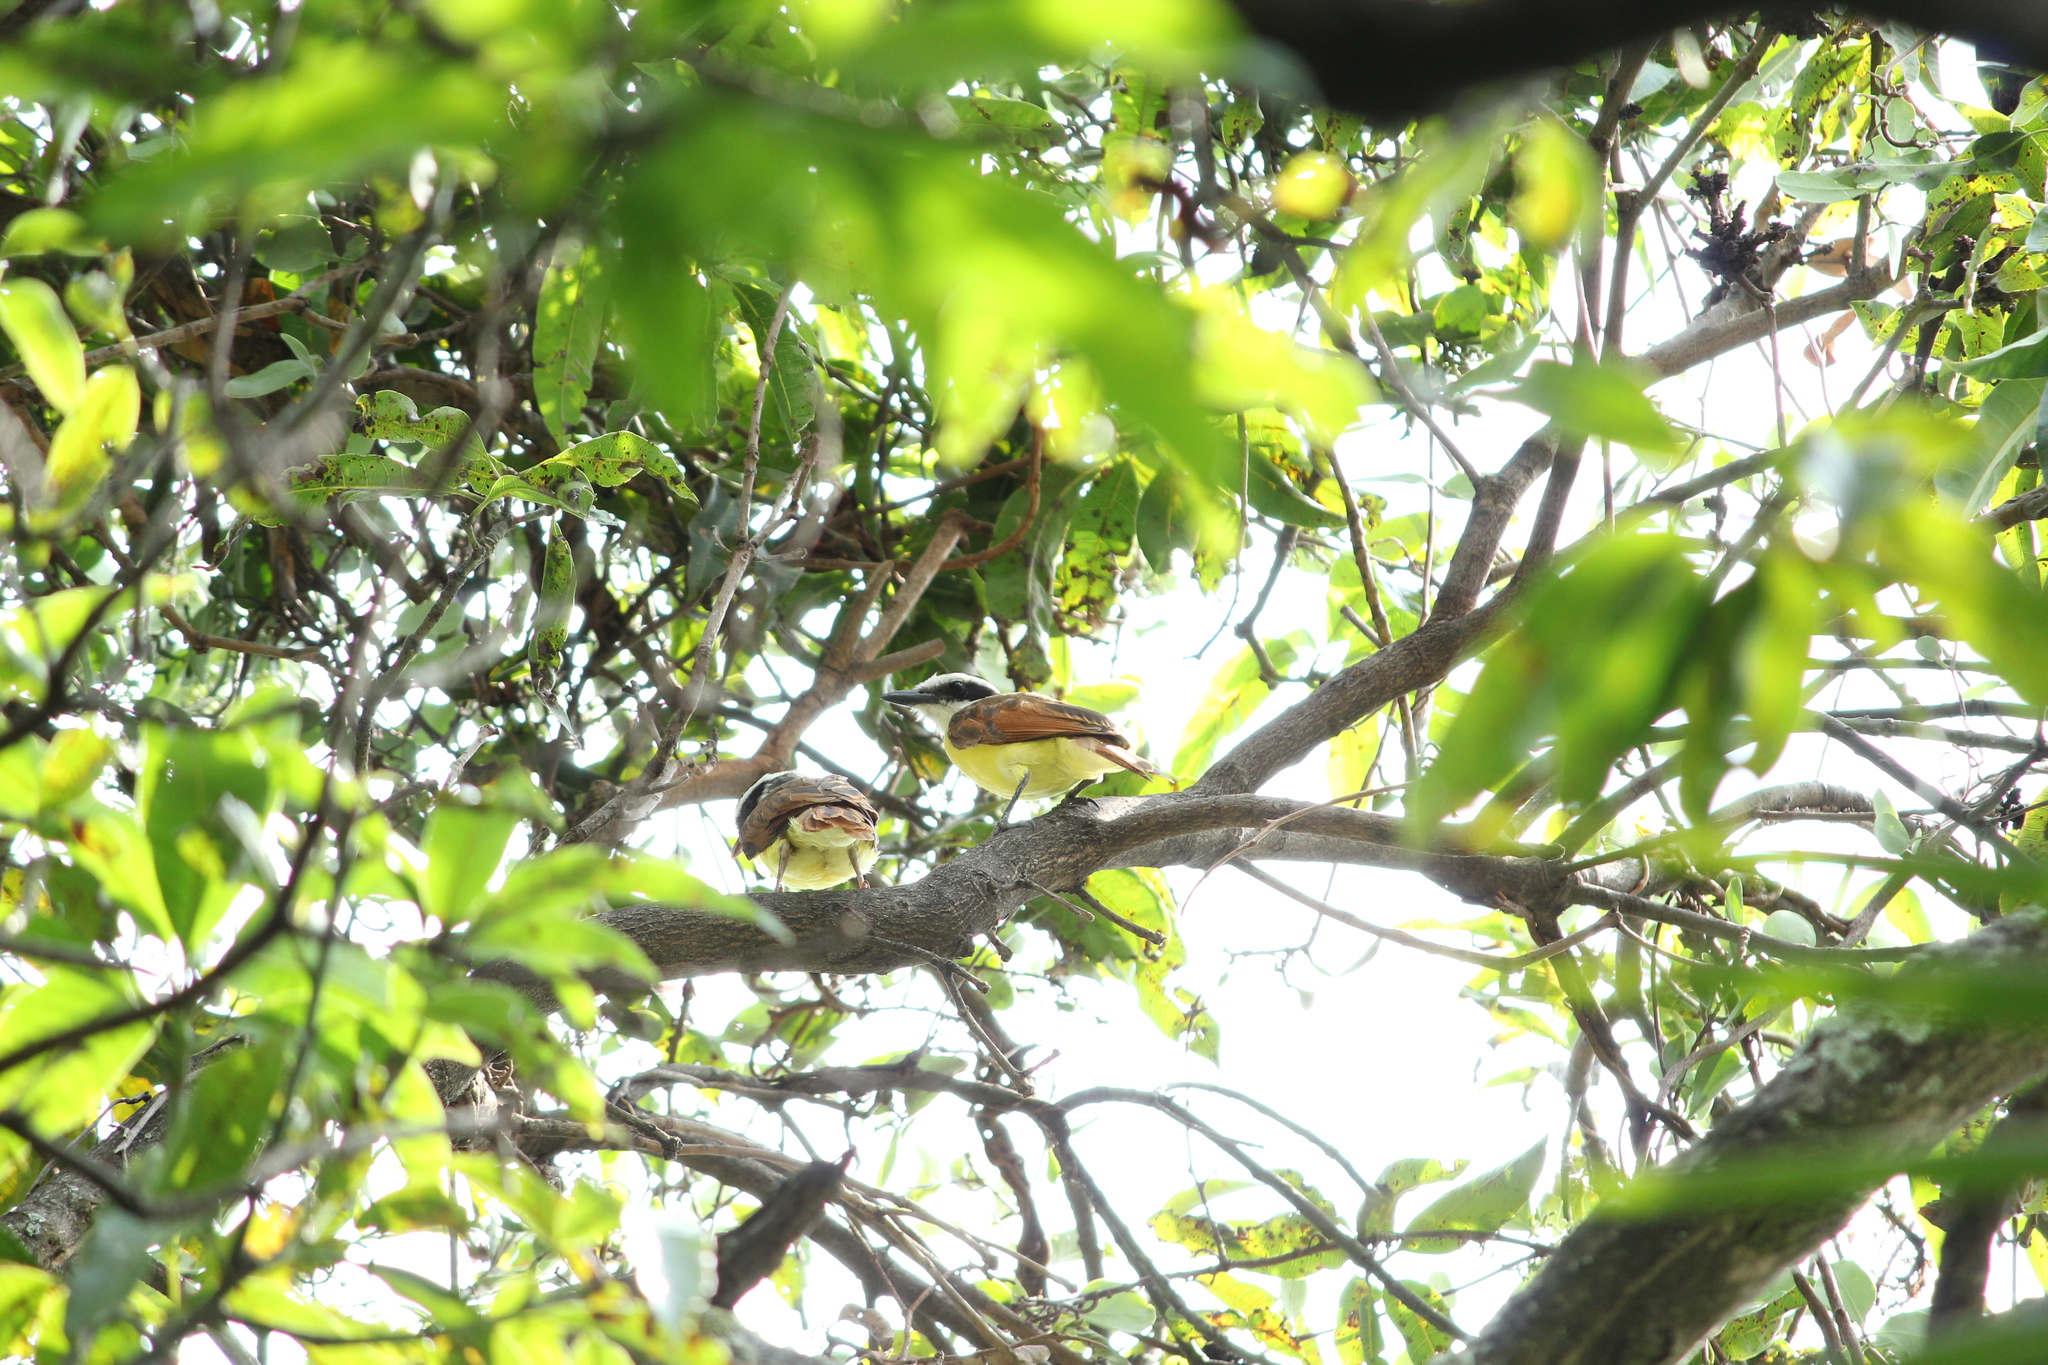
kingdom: Animalia
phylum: Chordata
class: Aves
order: Passeriformes
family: Tyrannidae
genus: Pitangus
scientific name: Pitangus sulphuratus
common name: Great kiskadee
